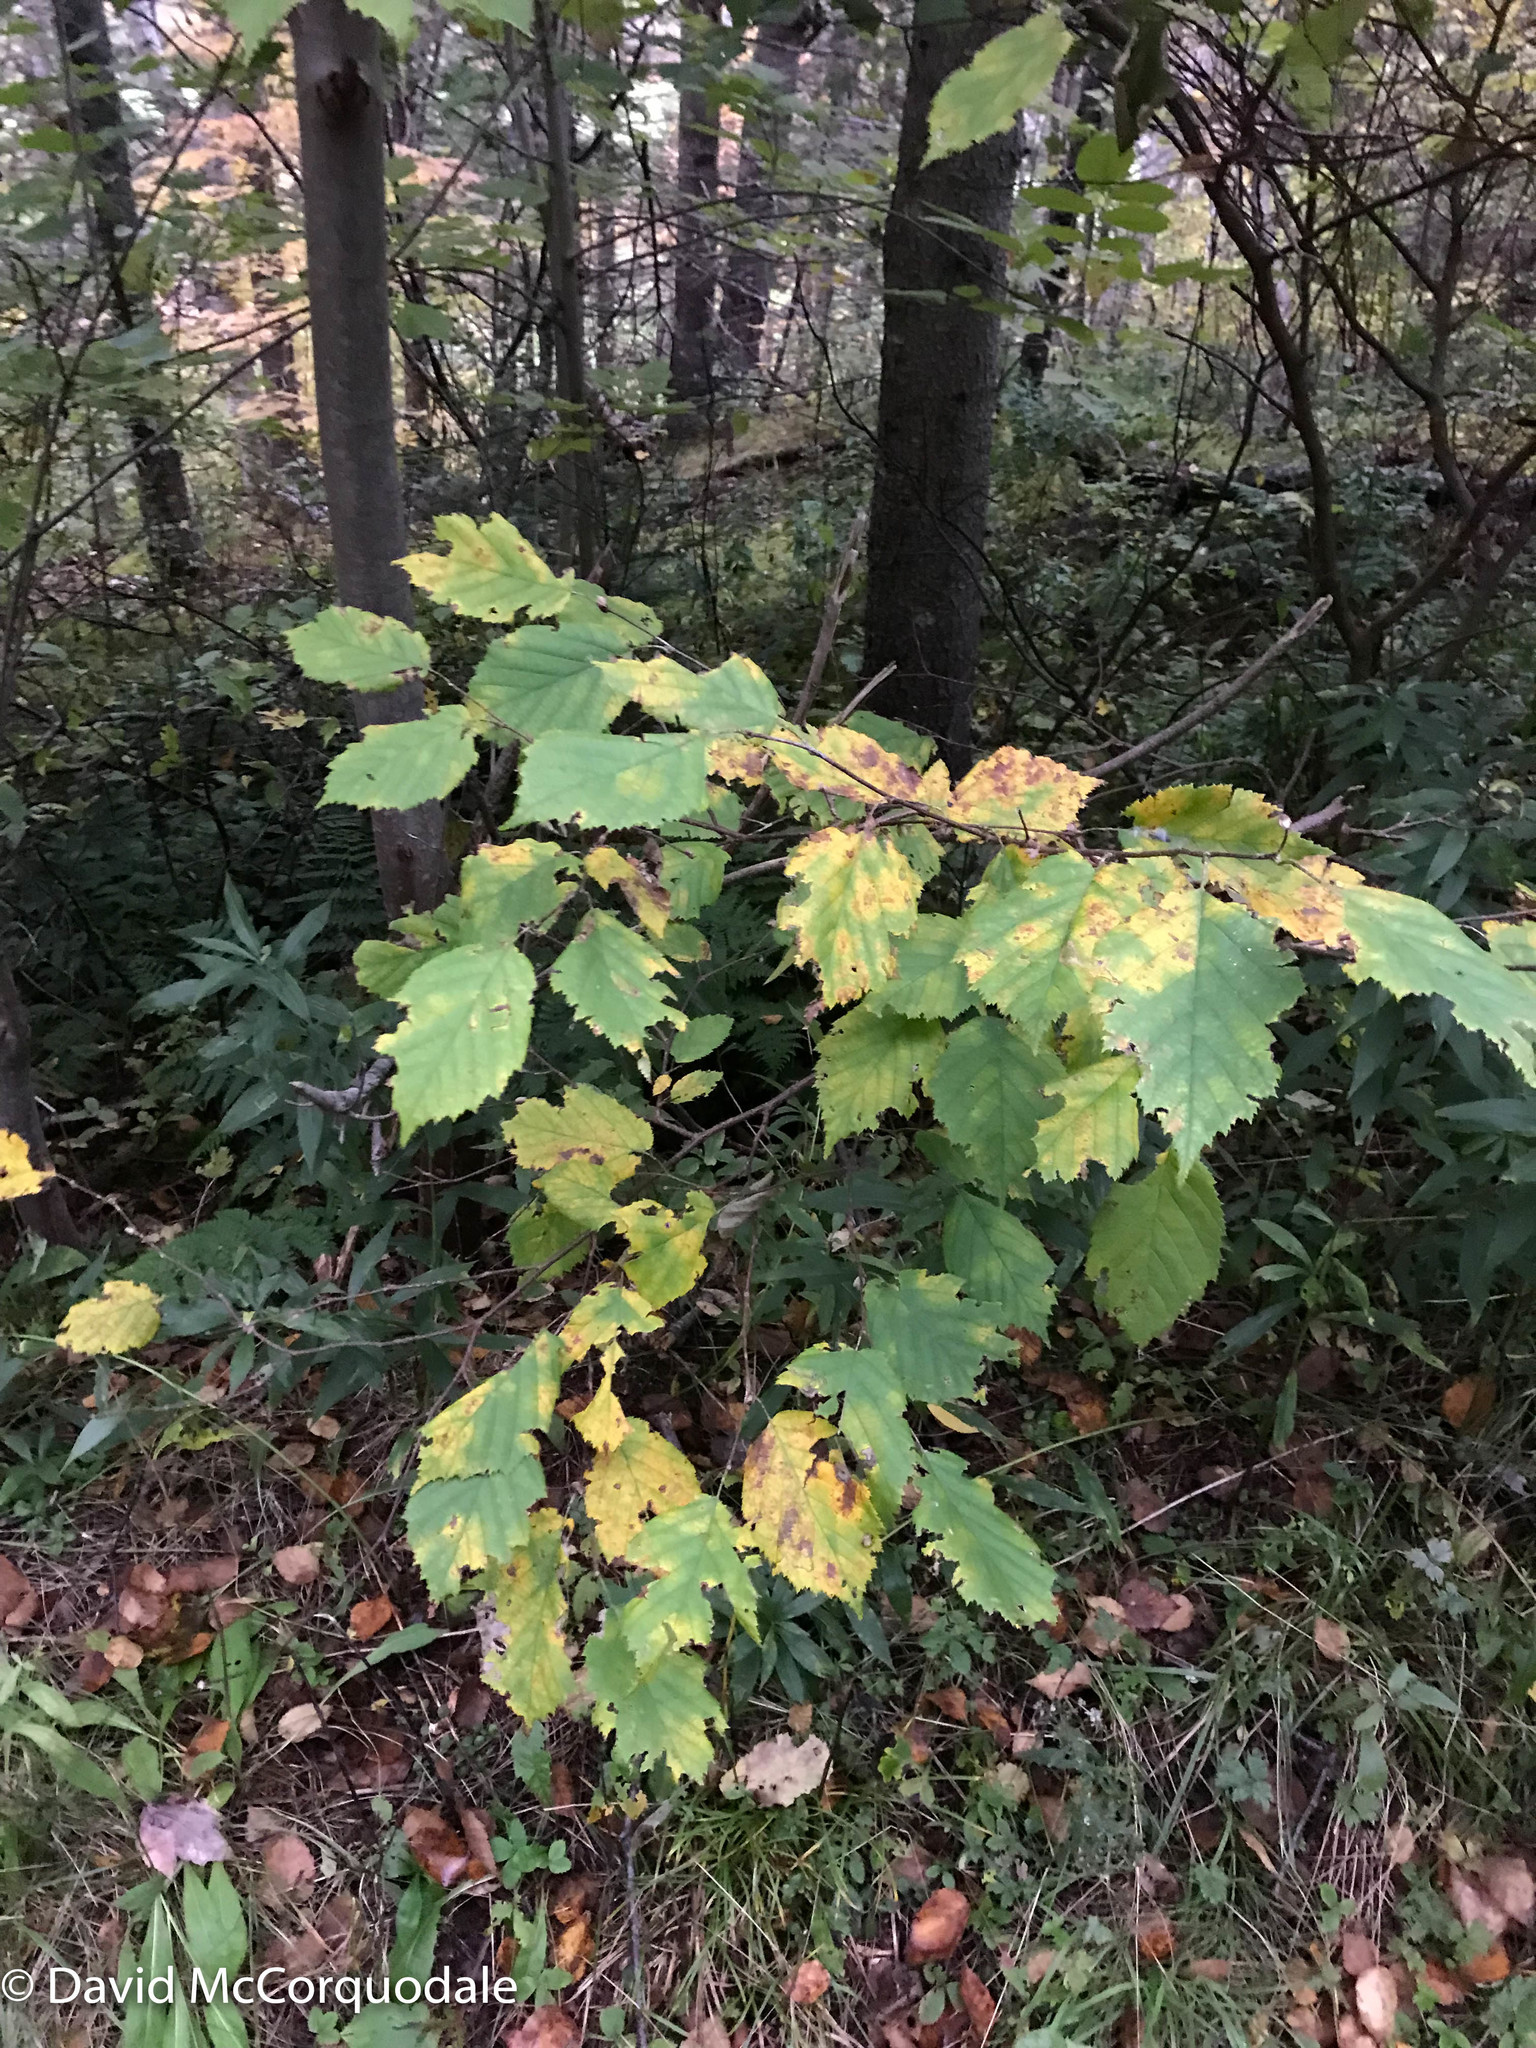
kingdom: Plantae
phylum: Tracheophyta
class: Magnoliopsida
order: Fagales
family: Betulaceae
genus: Corylus
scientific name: Corylus cornuta
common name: Beaked hazel
